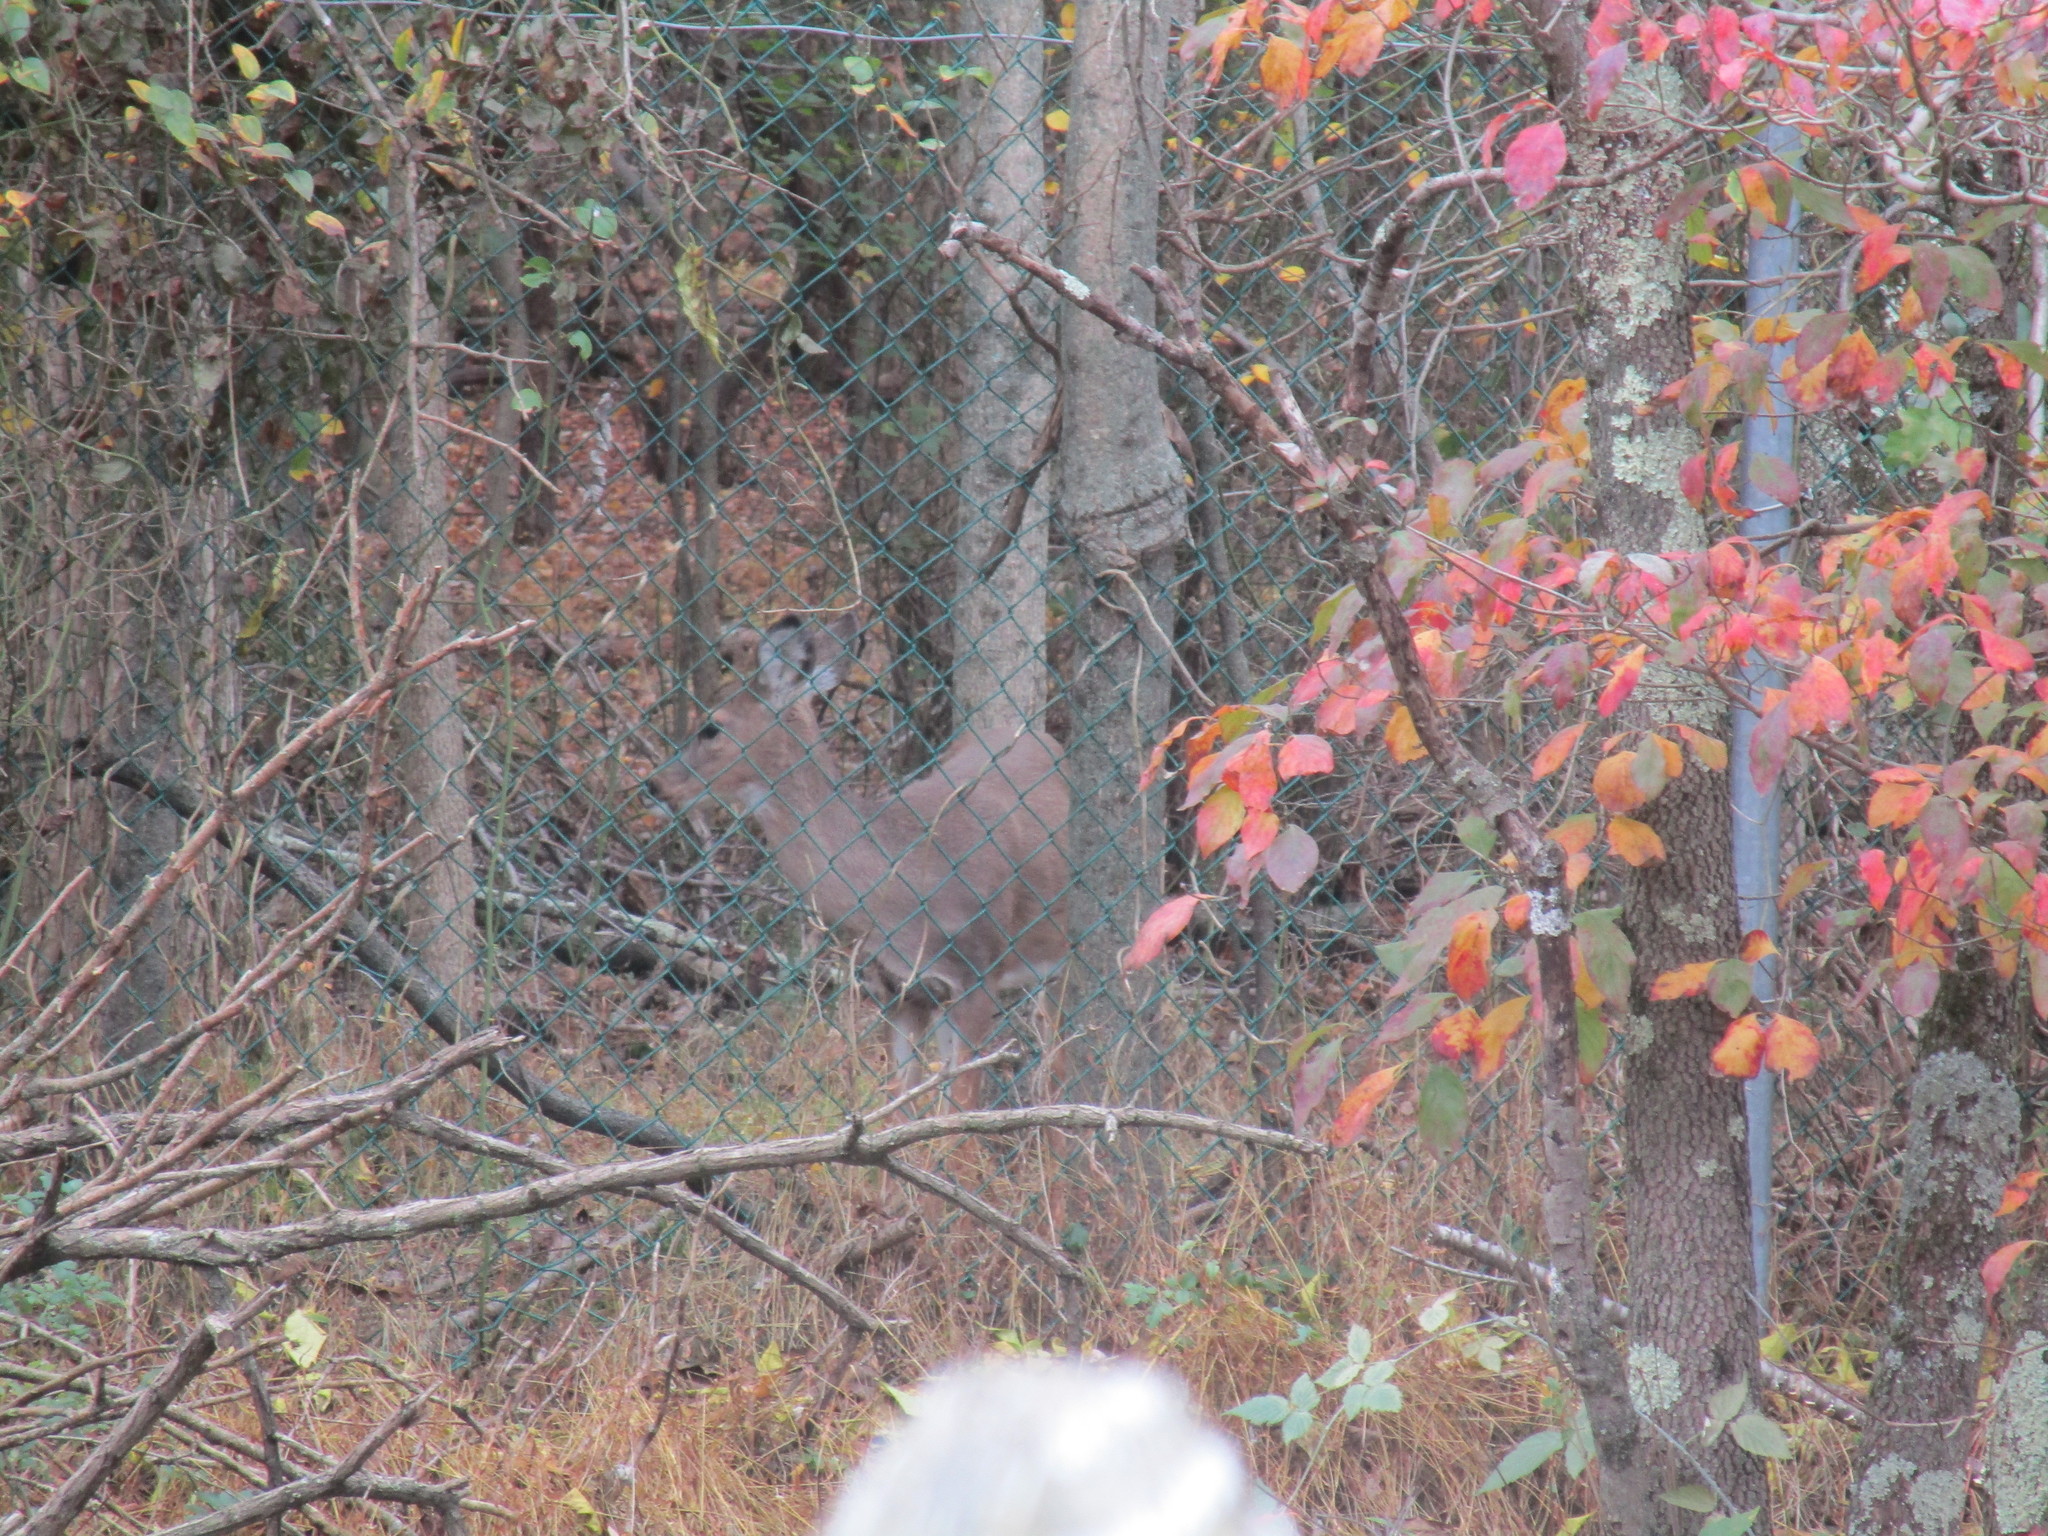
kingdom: Animalia
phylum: Chordata
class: Mammalia
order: Artiodactyla
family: Cervidae
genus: Odocoileus
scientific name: Odocoileus virginianus
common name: White-tailed deer
